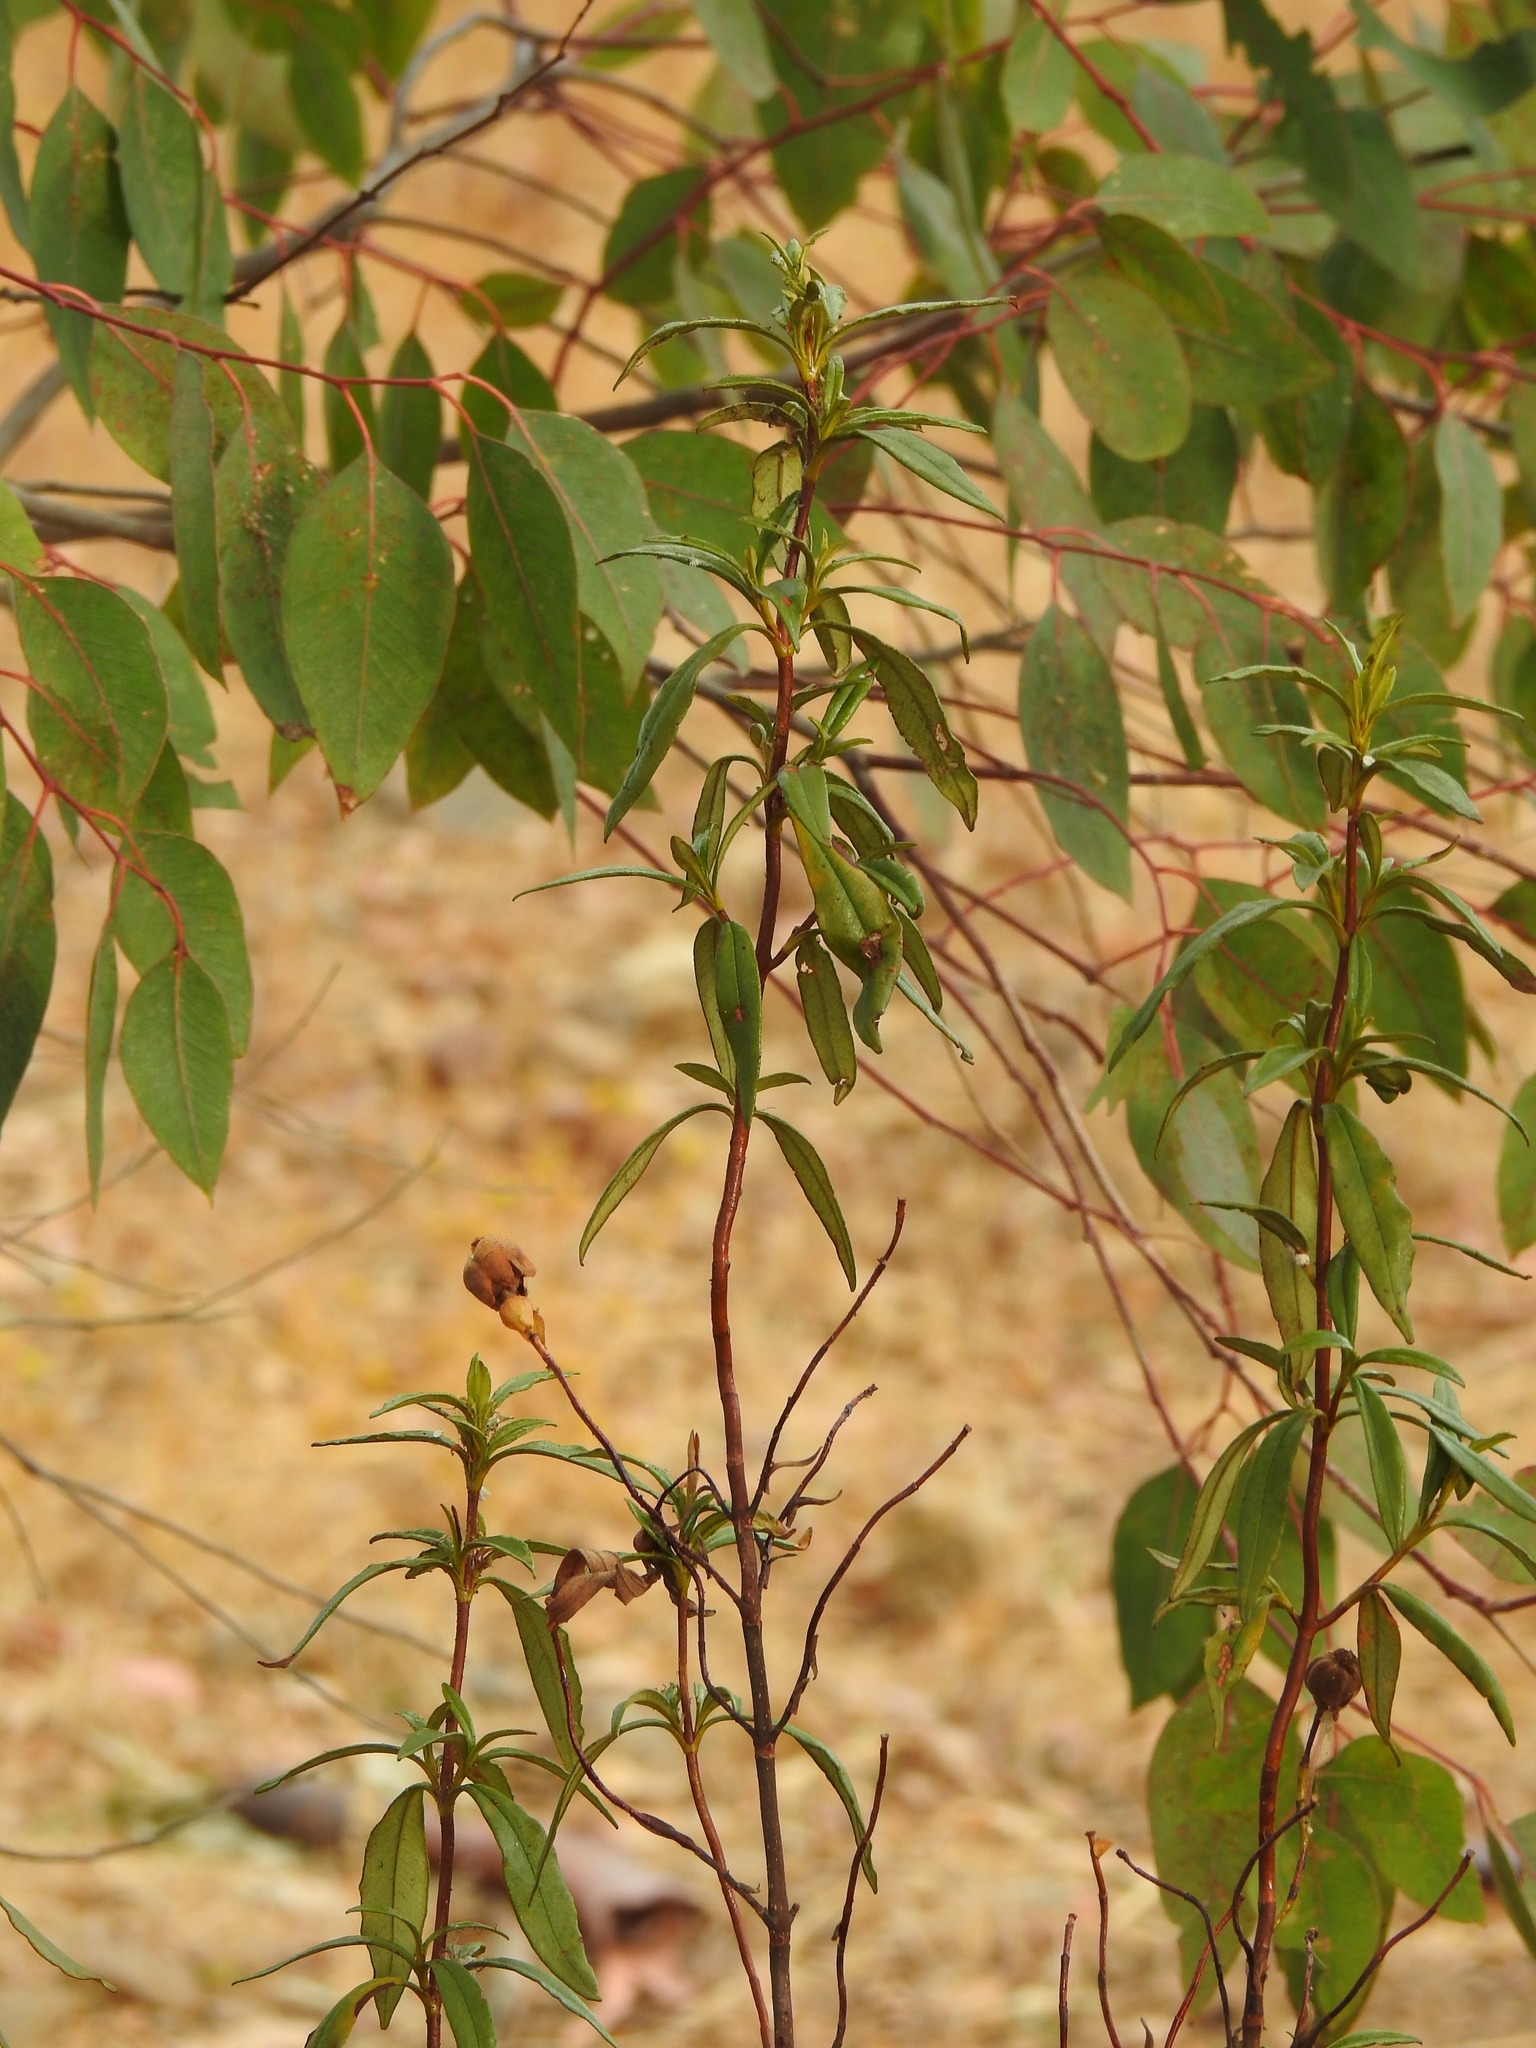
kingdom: Plantae
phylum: Tracheophyta
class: Magnoliopsida
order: Malvales
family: Cistaceae
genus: Cistus
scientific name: Cistus ladanifer
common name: Common gum cistus
